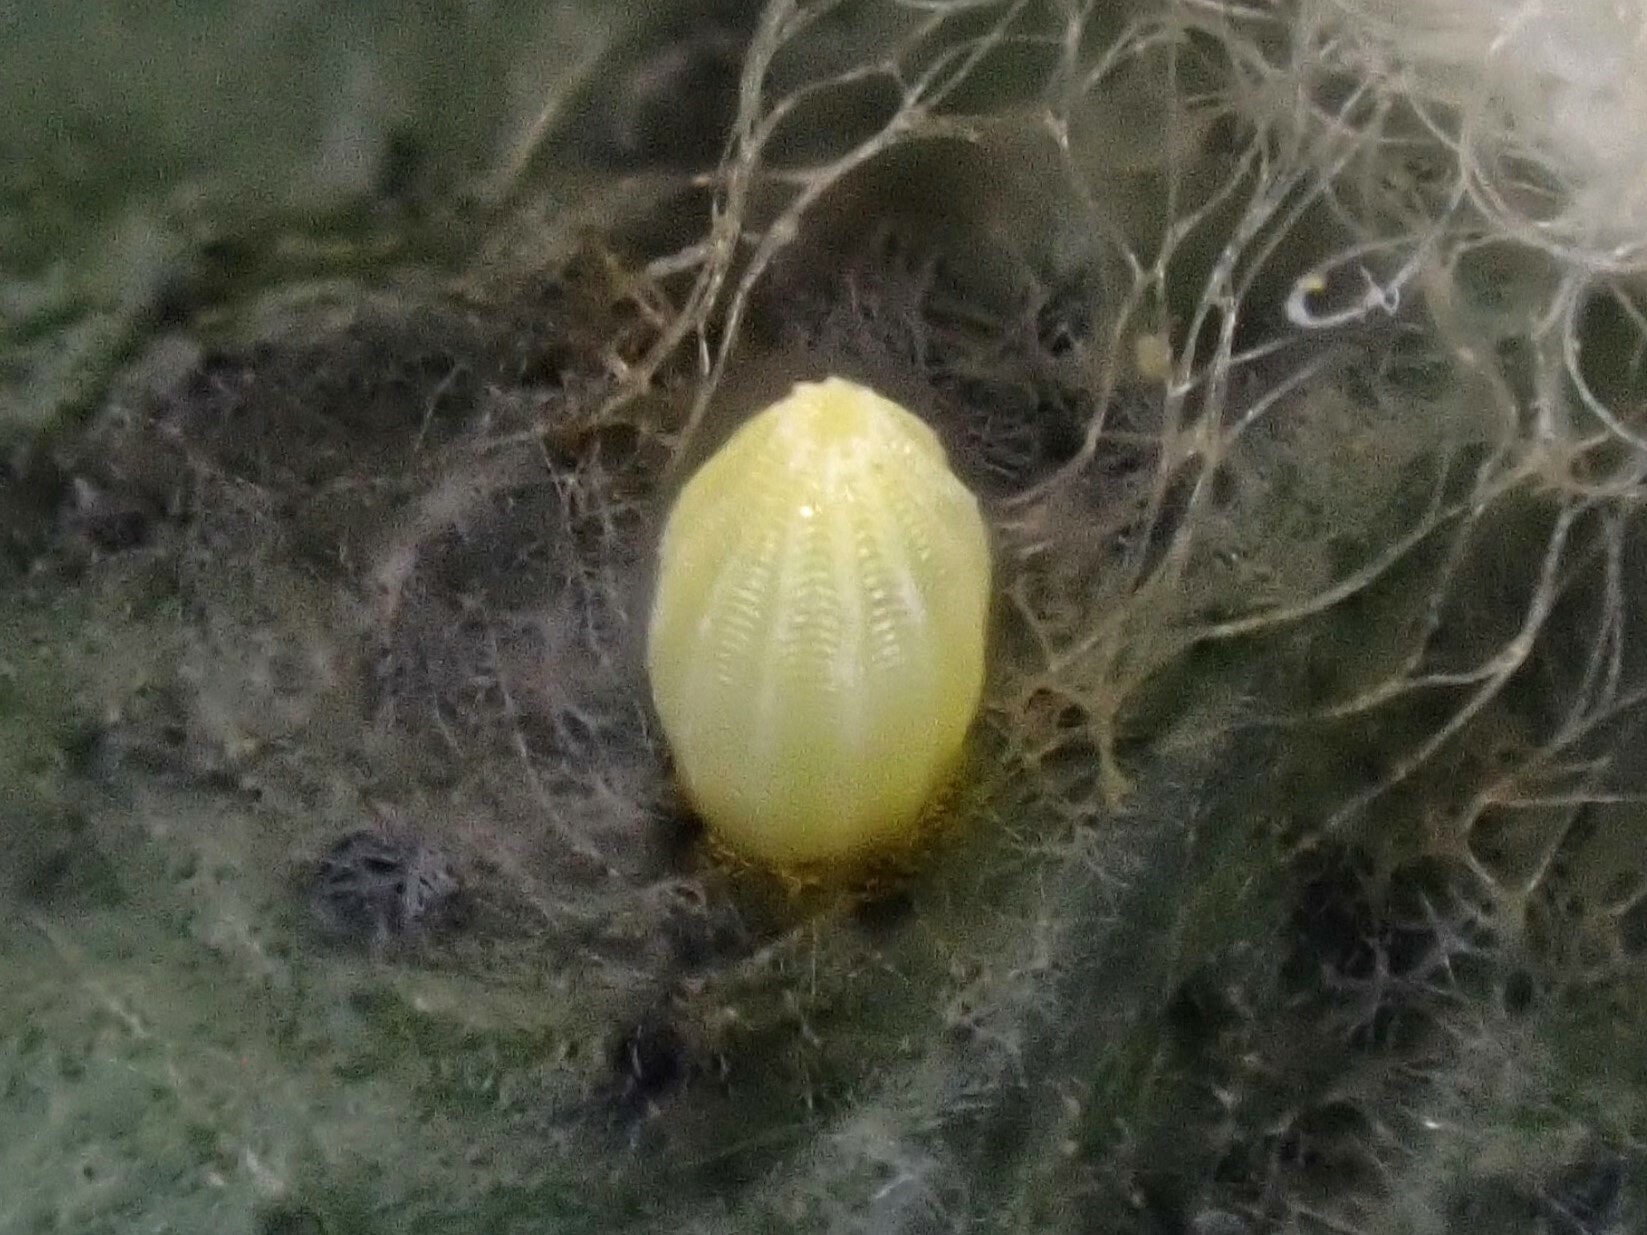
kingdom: Animalia
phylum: Arthropoda
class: Insecta
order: Lepidoptera
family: Pieridae
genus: Pieris
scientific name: Pieris rapae
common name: Small white
